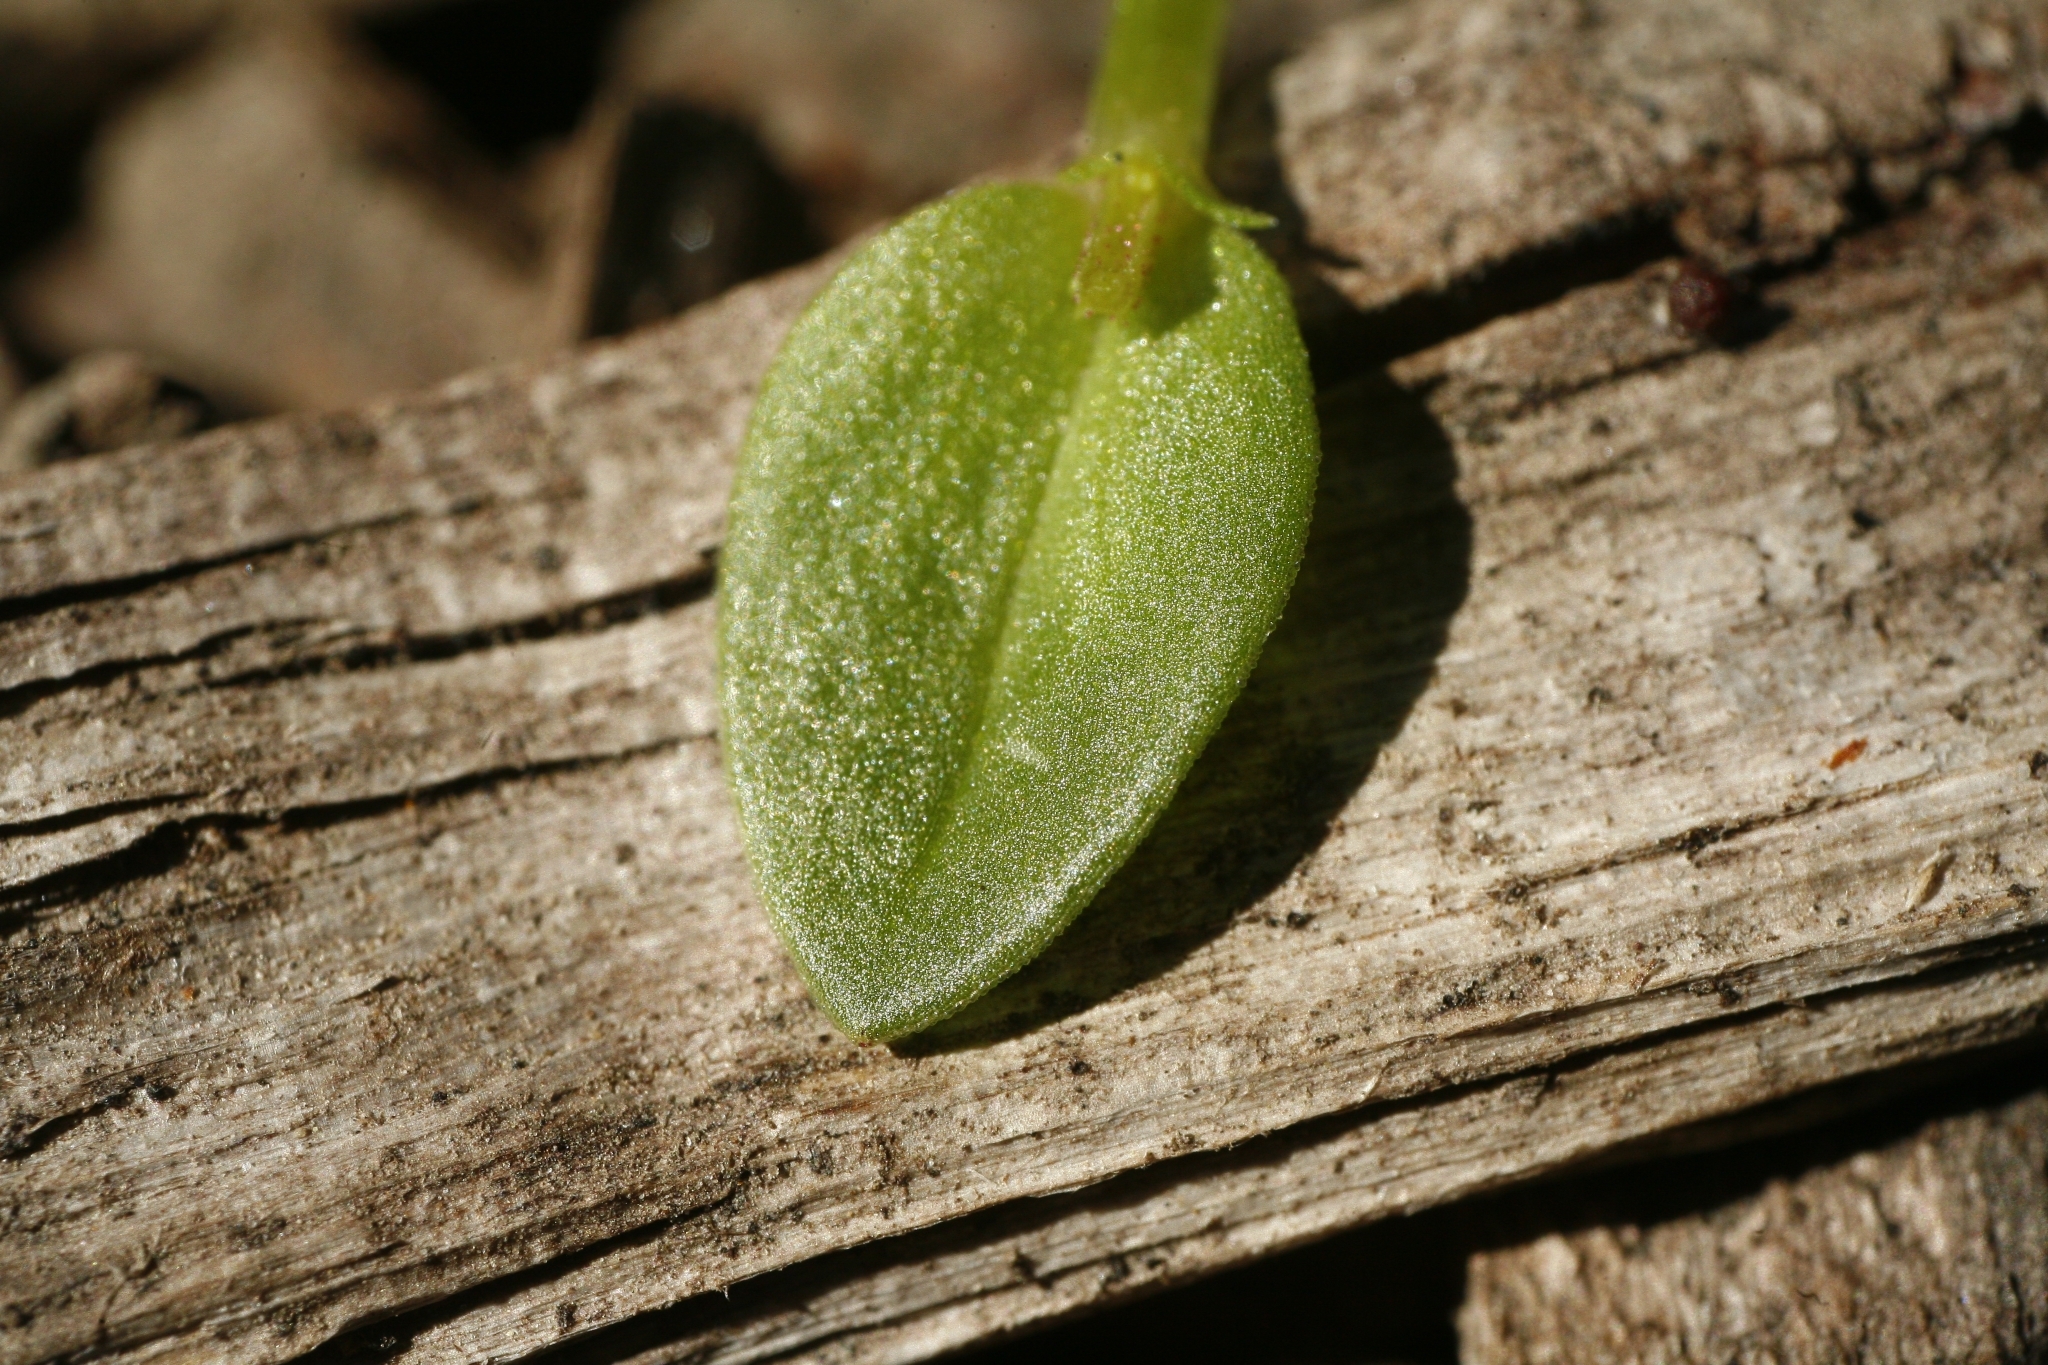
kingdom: Plantae
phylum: Tracheophyta
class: Magnoliopsida
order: Ericales
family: Primulaceae
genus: Lysimachia
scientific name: Lysimachia arvensis
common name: Scarlet pimpernel
